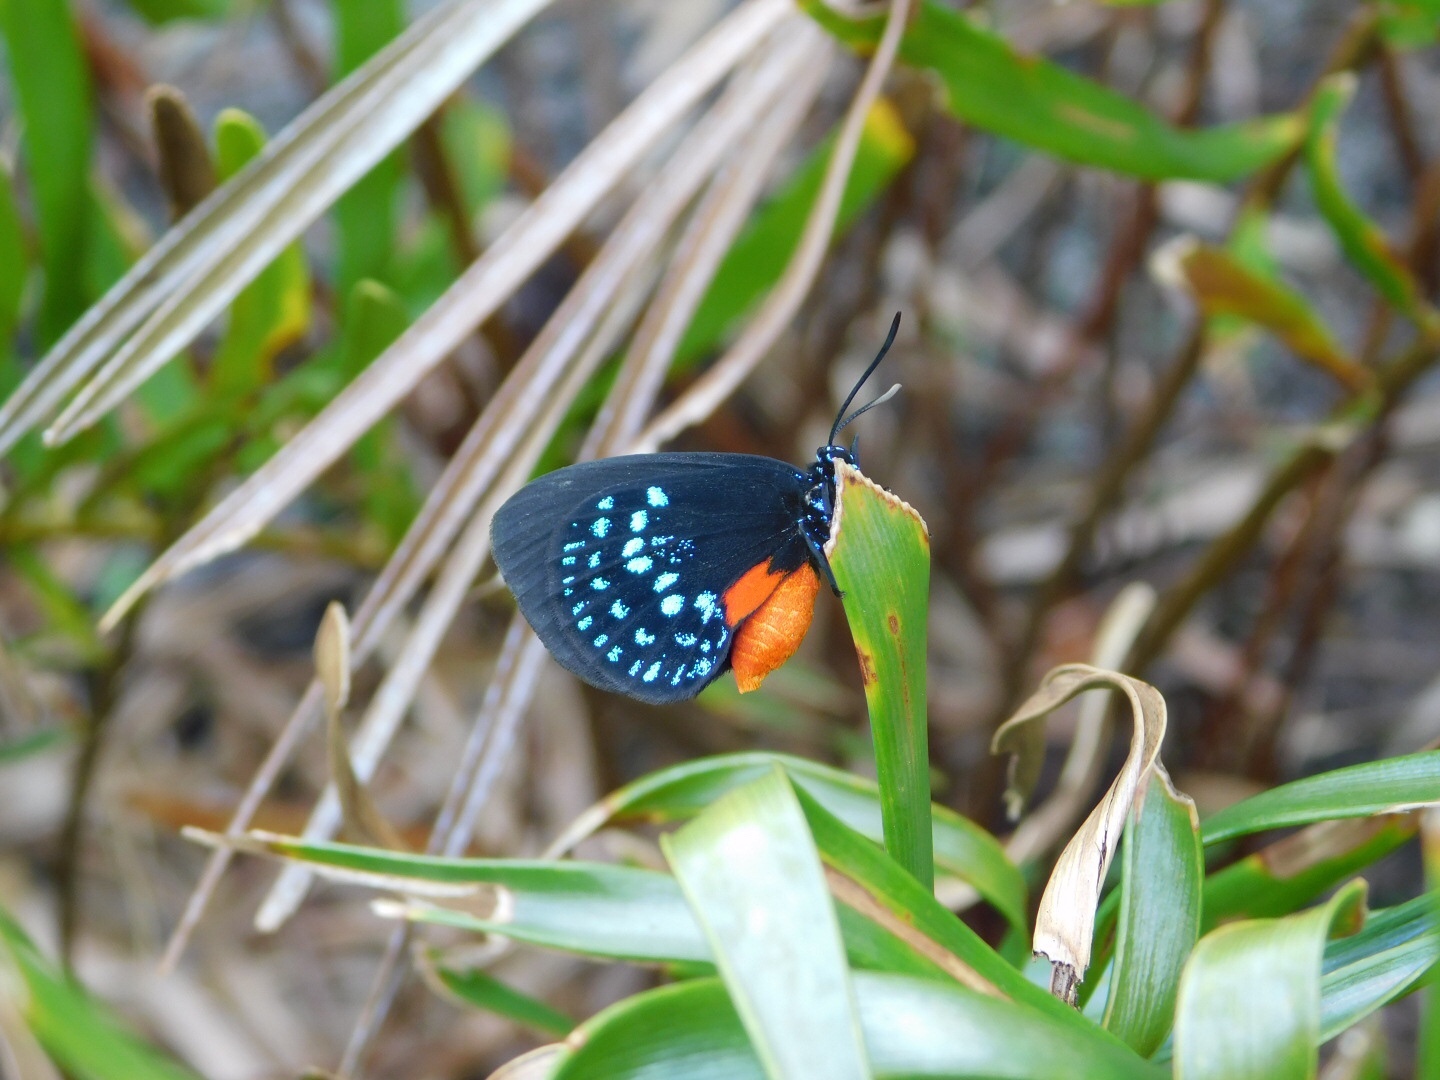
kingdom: Animalia
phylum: Arthropoda
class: Insecta
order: Lepidoptera
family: Lycaenidae
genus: Eumaeus
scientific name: Eumaeus atala
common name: Atala
